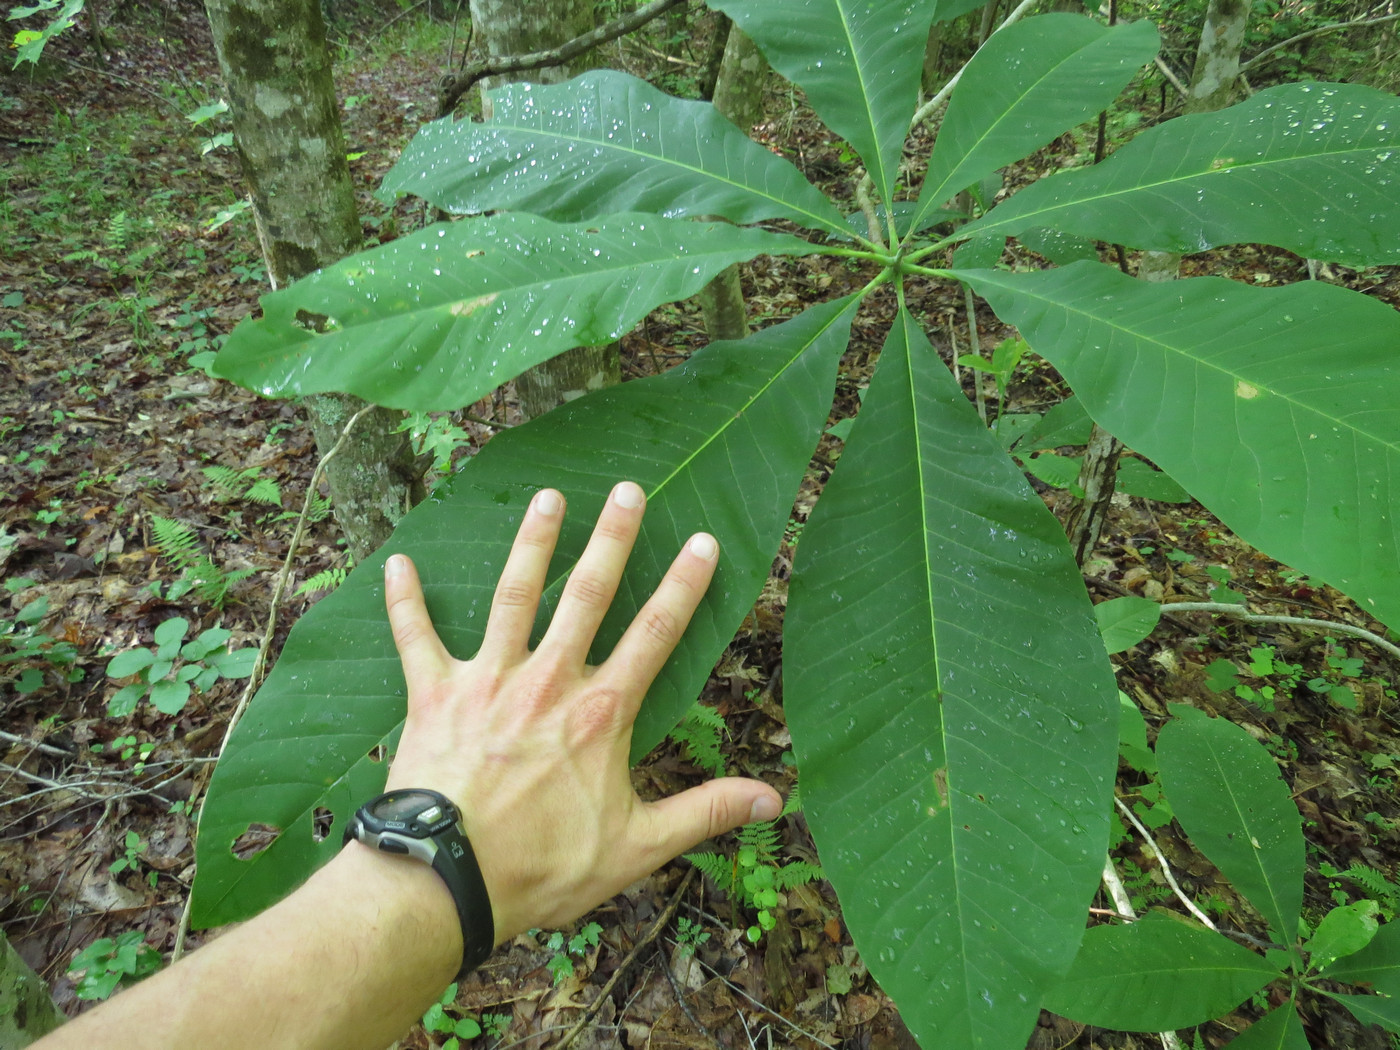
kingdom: Plantae
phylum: Tracheophyta
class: Magnoliopsida
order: Magnoliales
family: Magnoliaceae
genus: Magnolia
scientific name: Magnolia tripetala
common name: Umbrella magnolia
